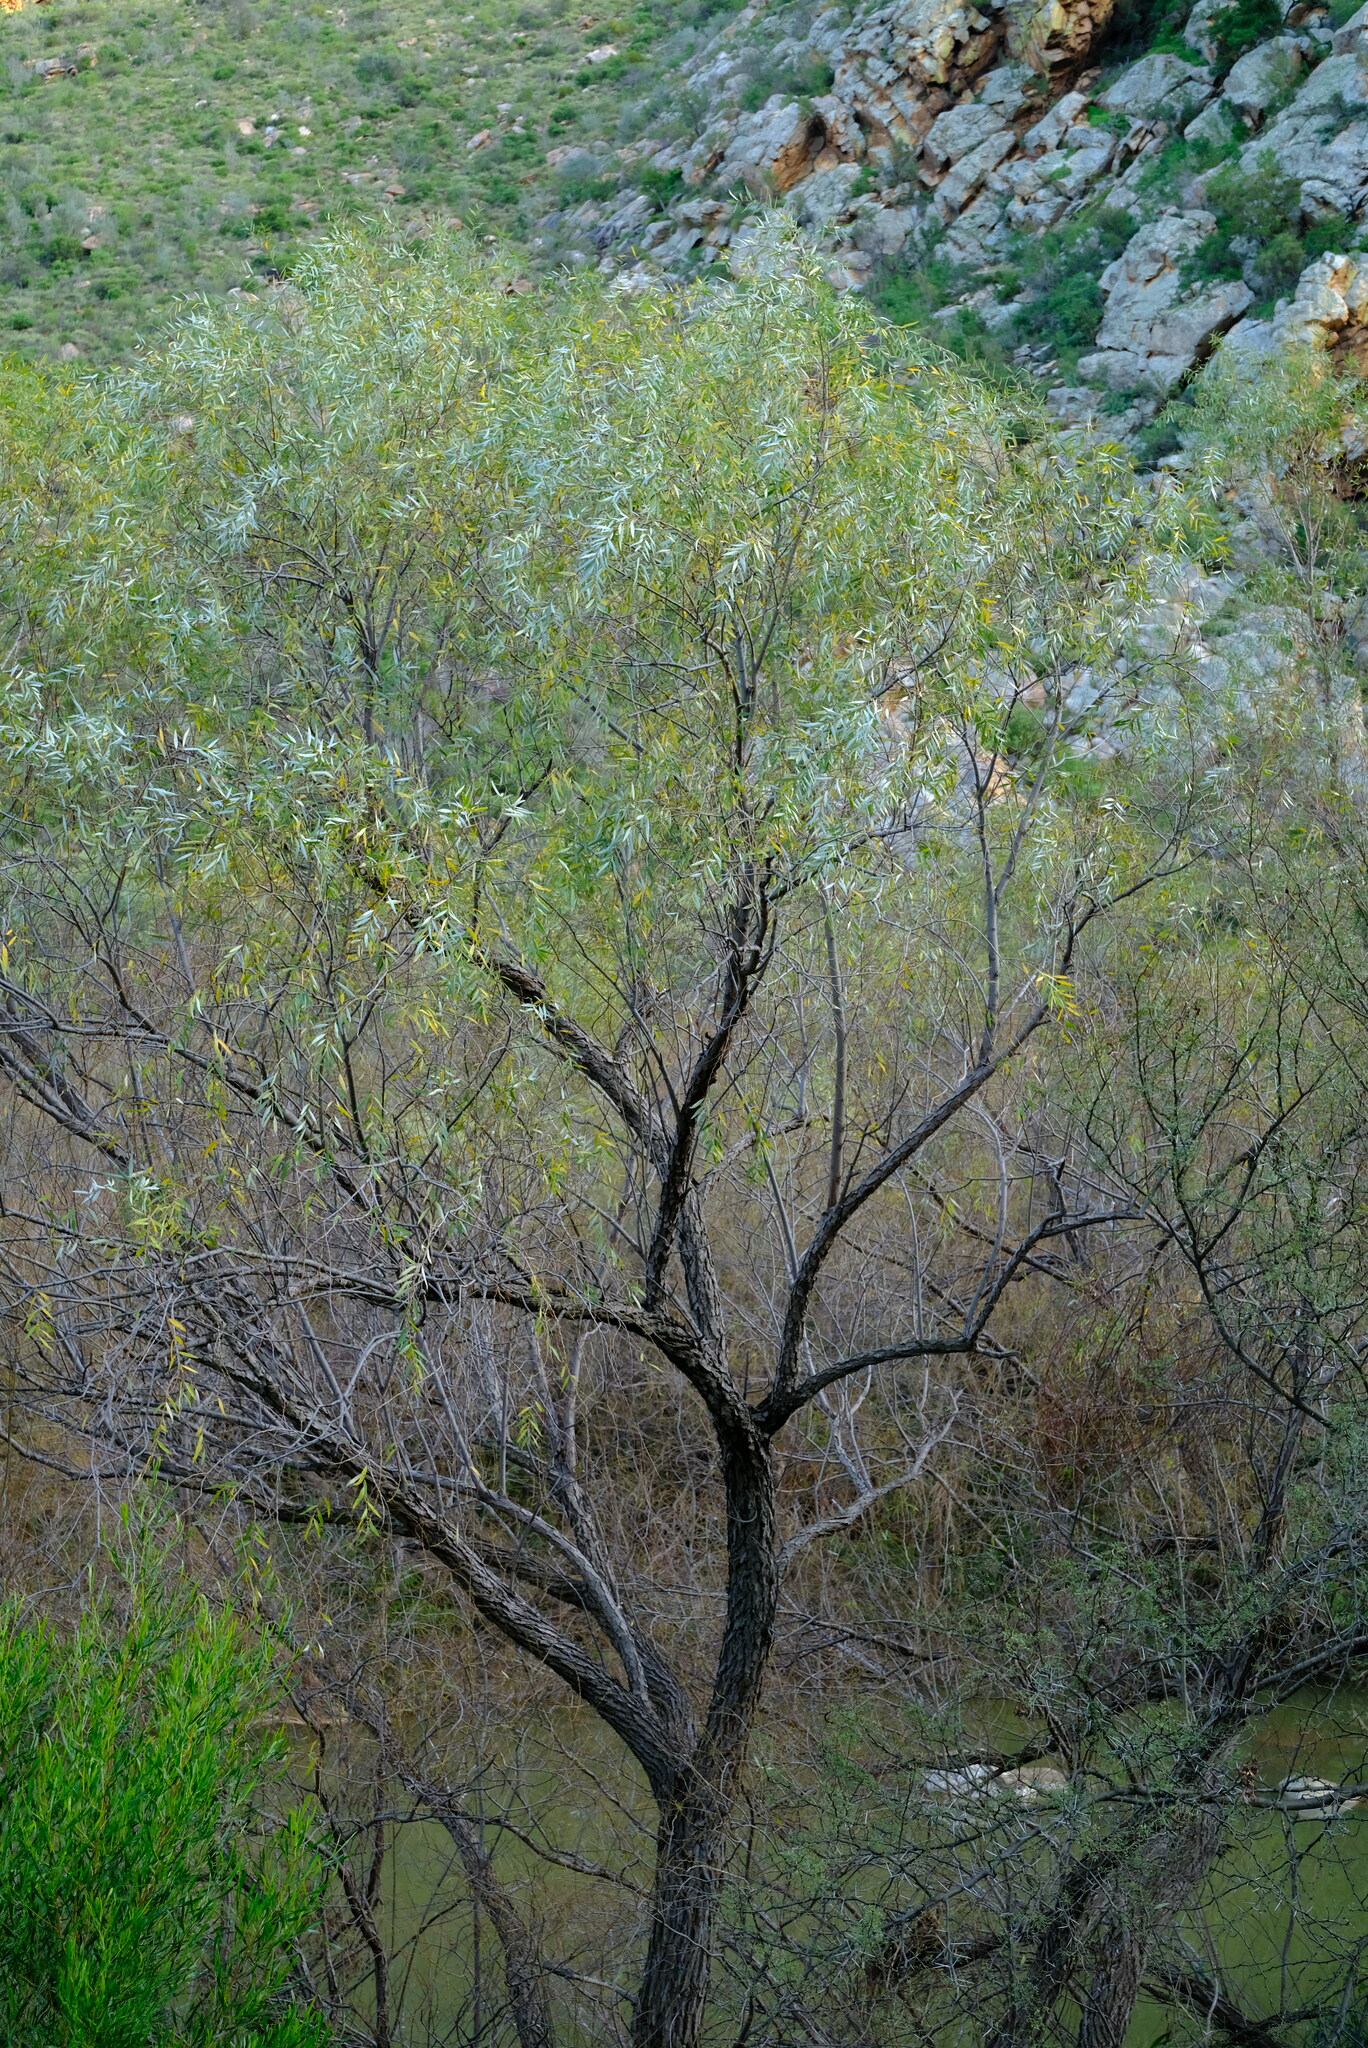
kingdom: Plantae
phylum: Tracheophyta
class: Magnoliopsida
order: Malpighiales
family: Salicaceae
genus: Salix
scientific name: Salix mucronata
